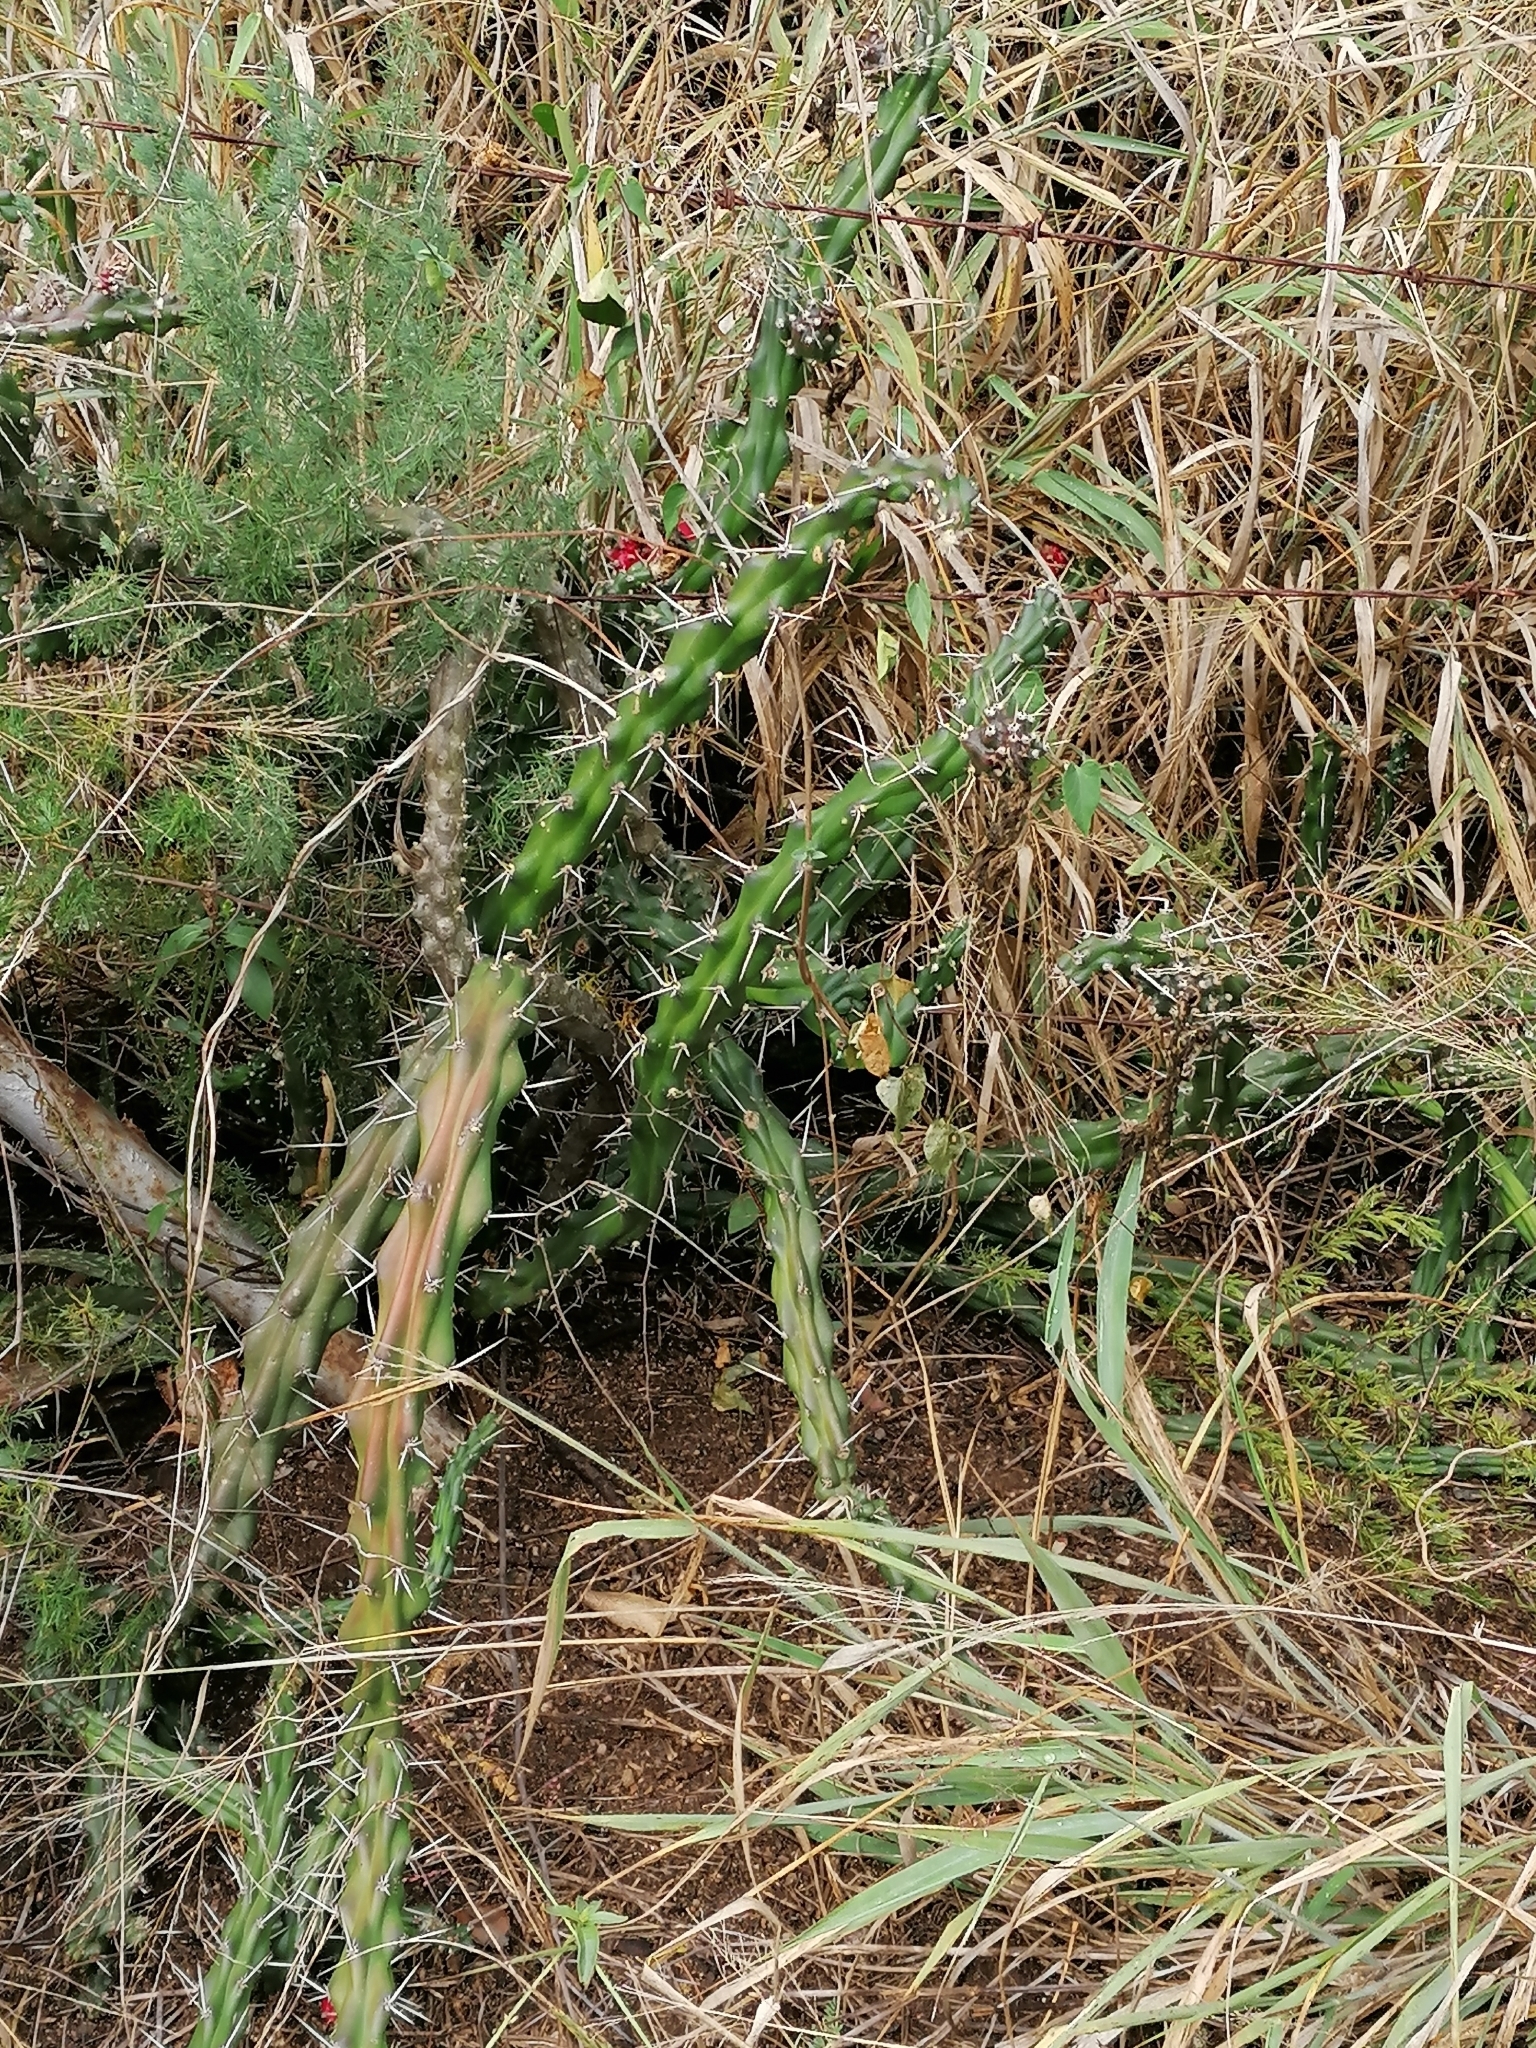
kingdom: Plantae
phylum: Tracheophyta
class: Magnoliopsida
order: Caryophyllales
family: Cactaceae
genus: Harrisia
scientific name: Harrisia martinii
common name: Moon cactus
